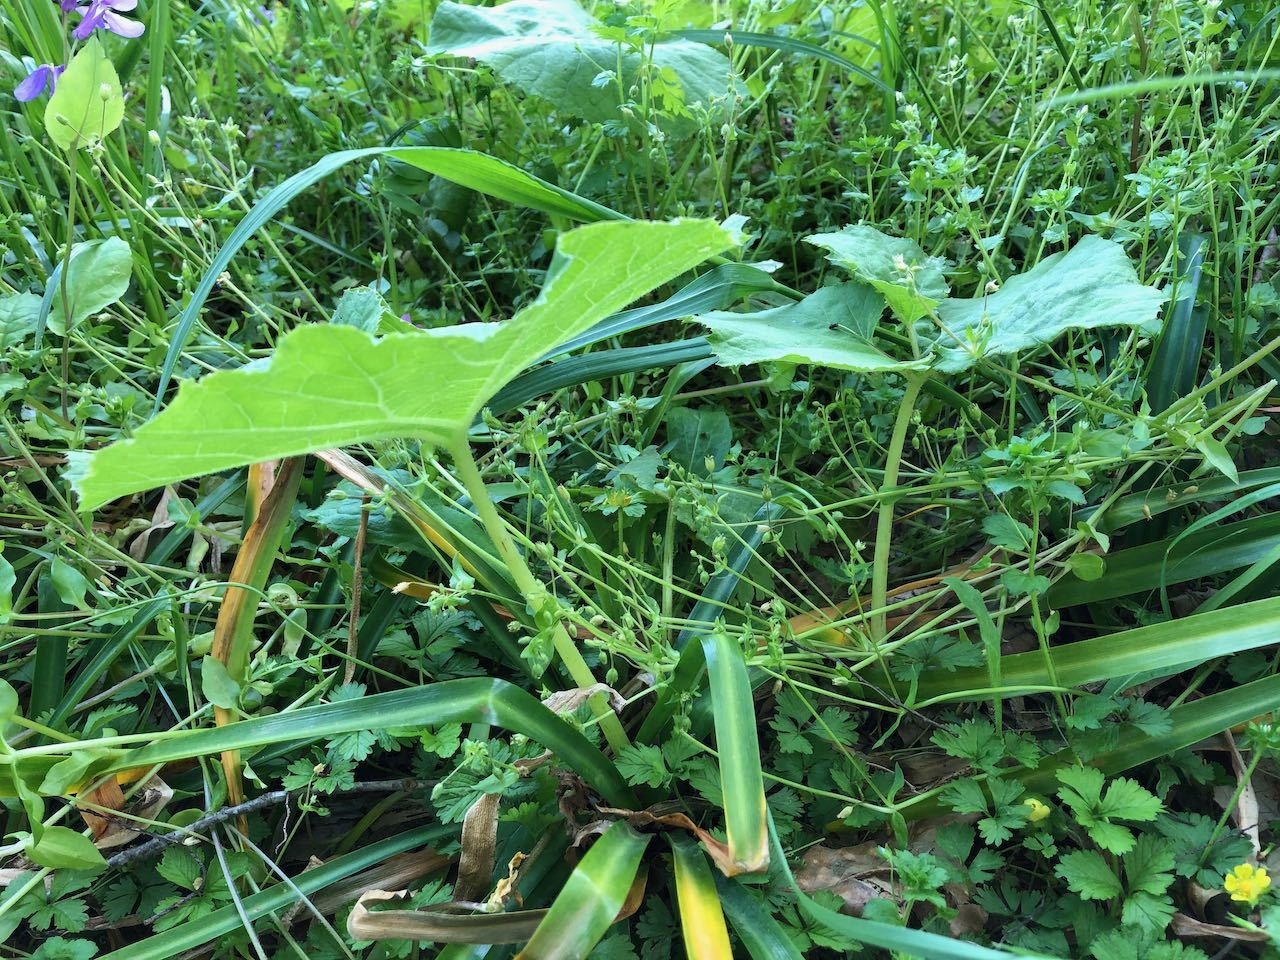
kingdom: Plantae
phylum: Tracheophyta
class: Magnoliopsida
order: Asterales
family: Asteraceae
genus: Petasites
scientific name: Petasites japonicus
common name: Giant butterbur
